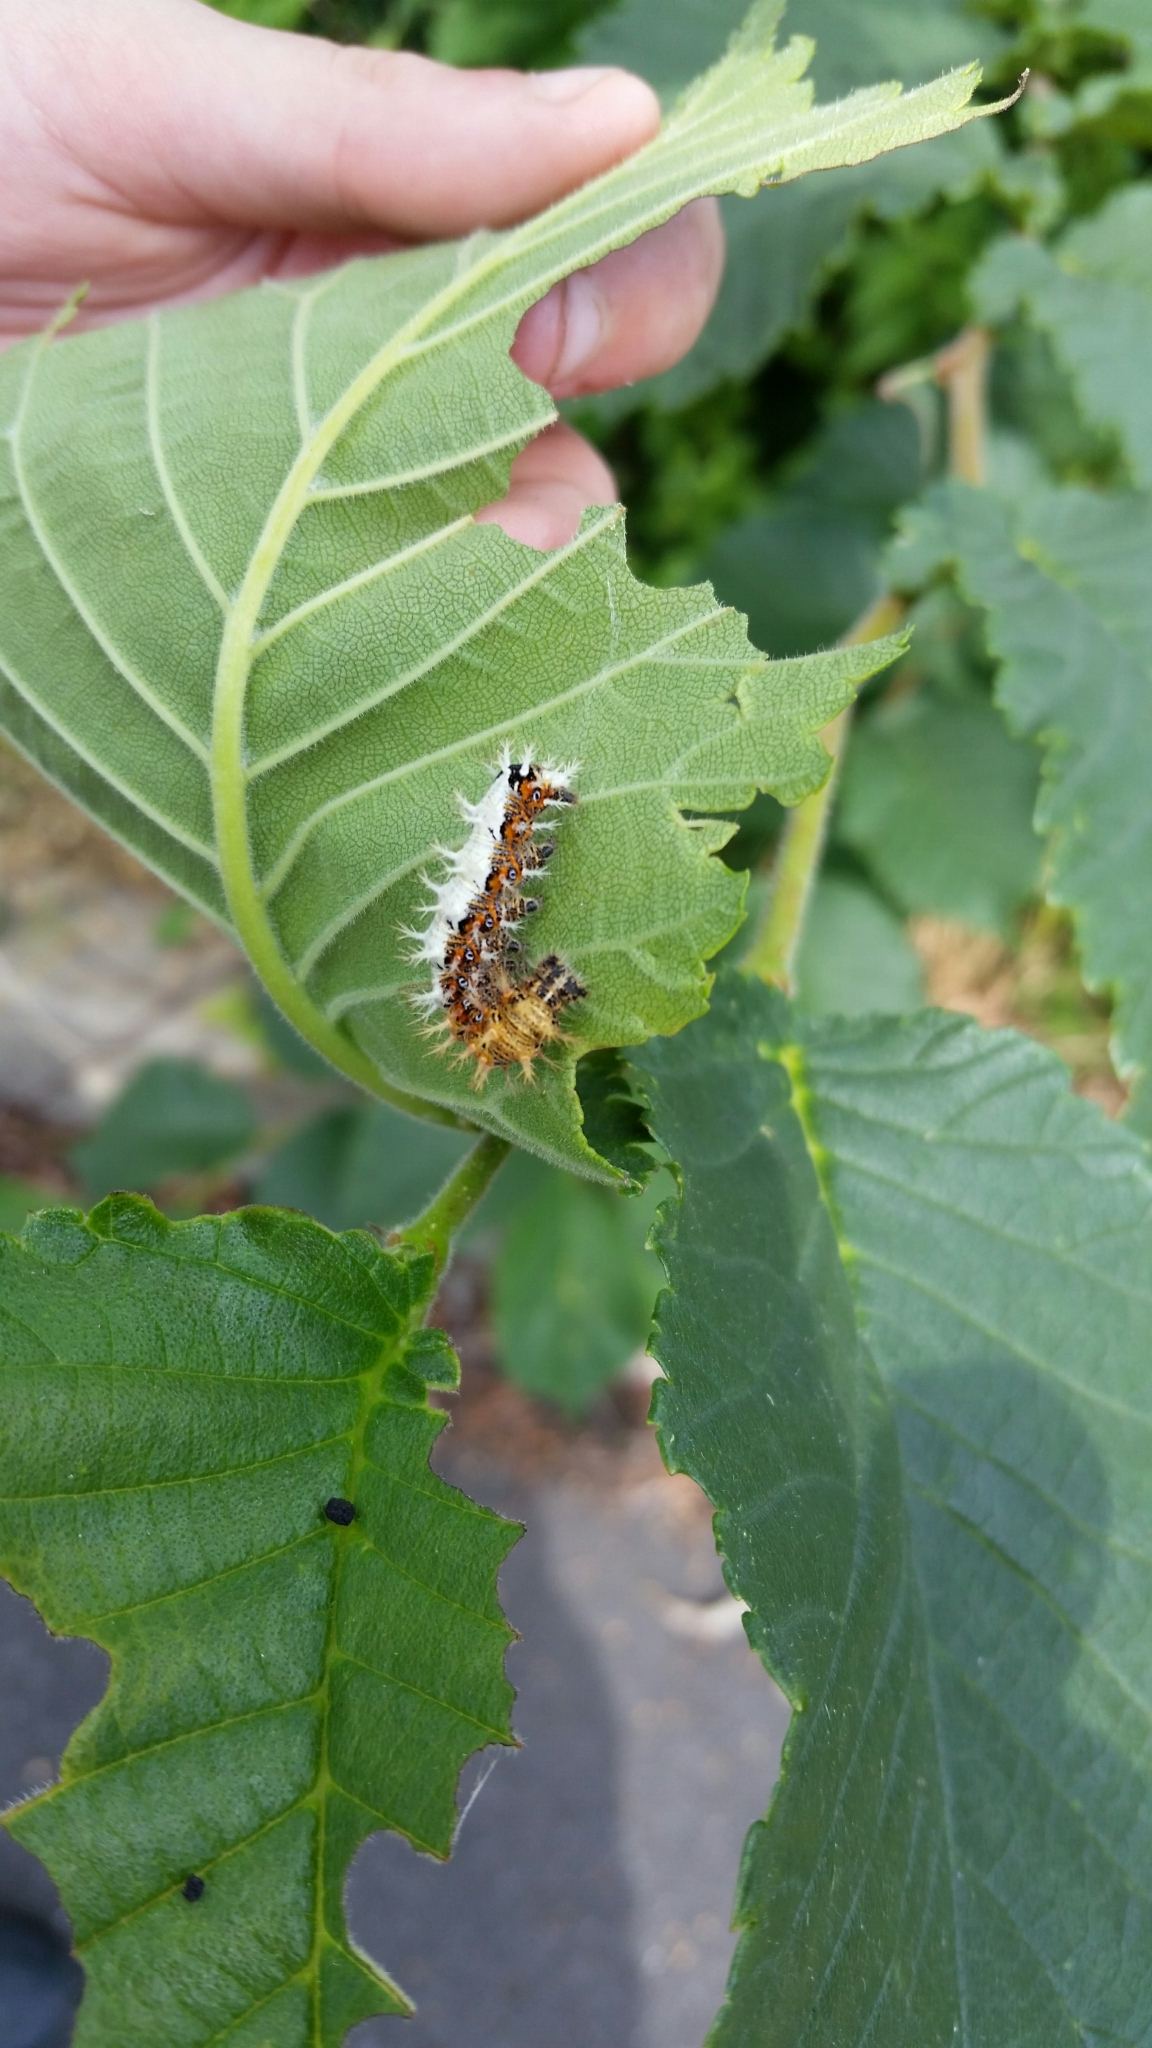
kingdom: Animalia
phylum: Arthropoda
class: Insecta
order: Lepidoptera
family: Nymphalidae
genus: Polygonia
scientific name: Polygonia c-album
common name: Comma
